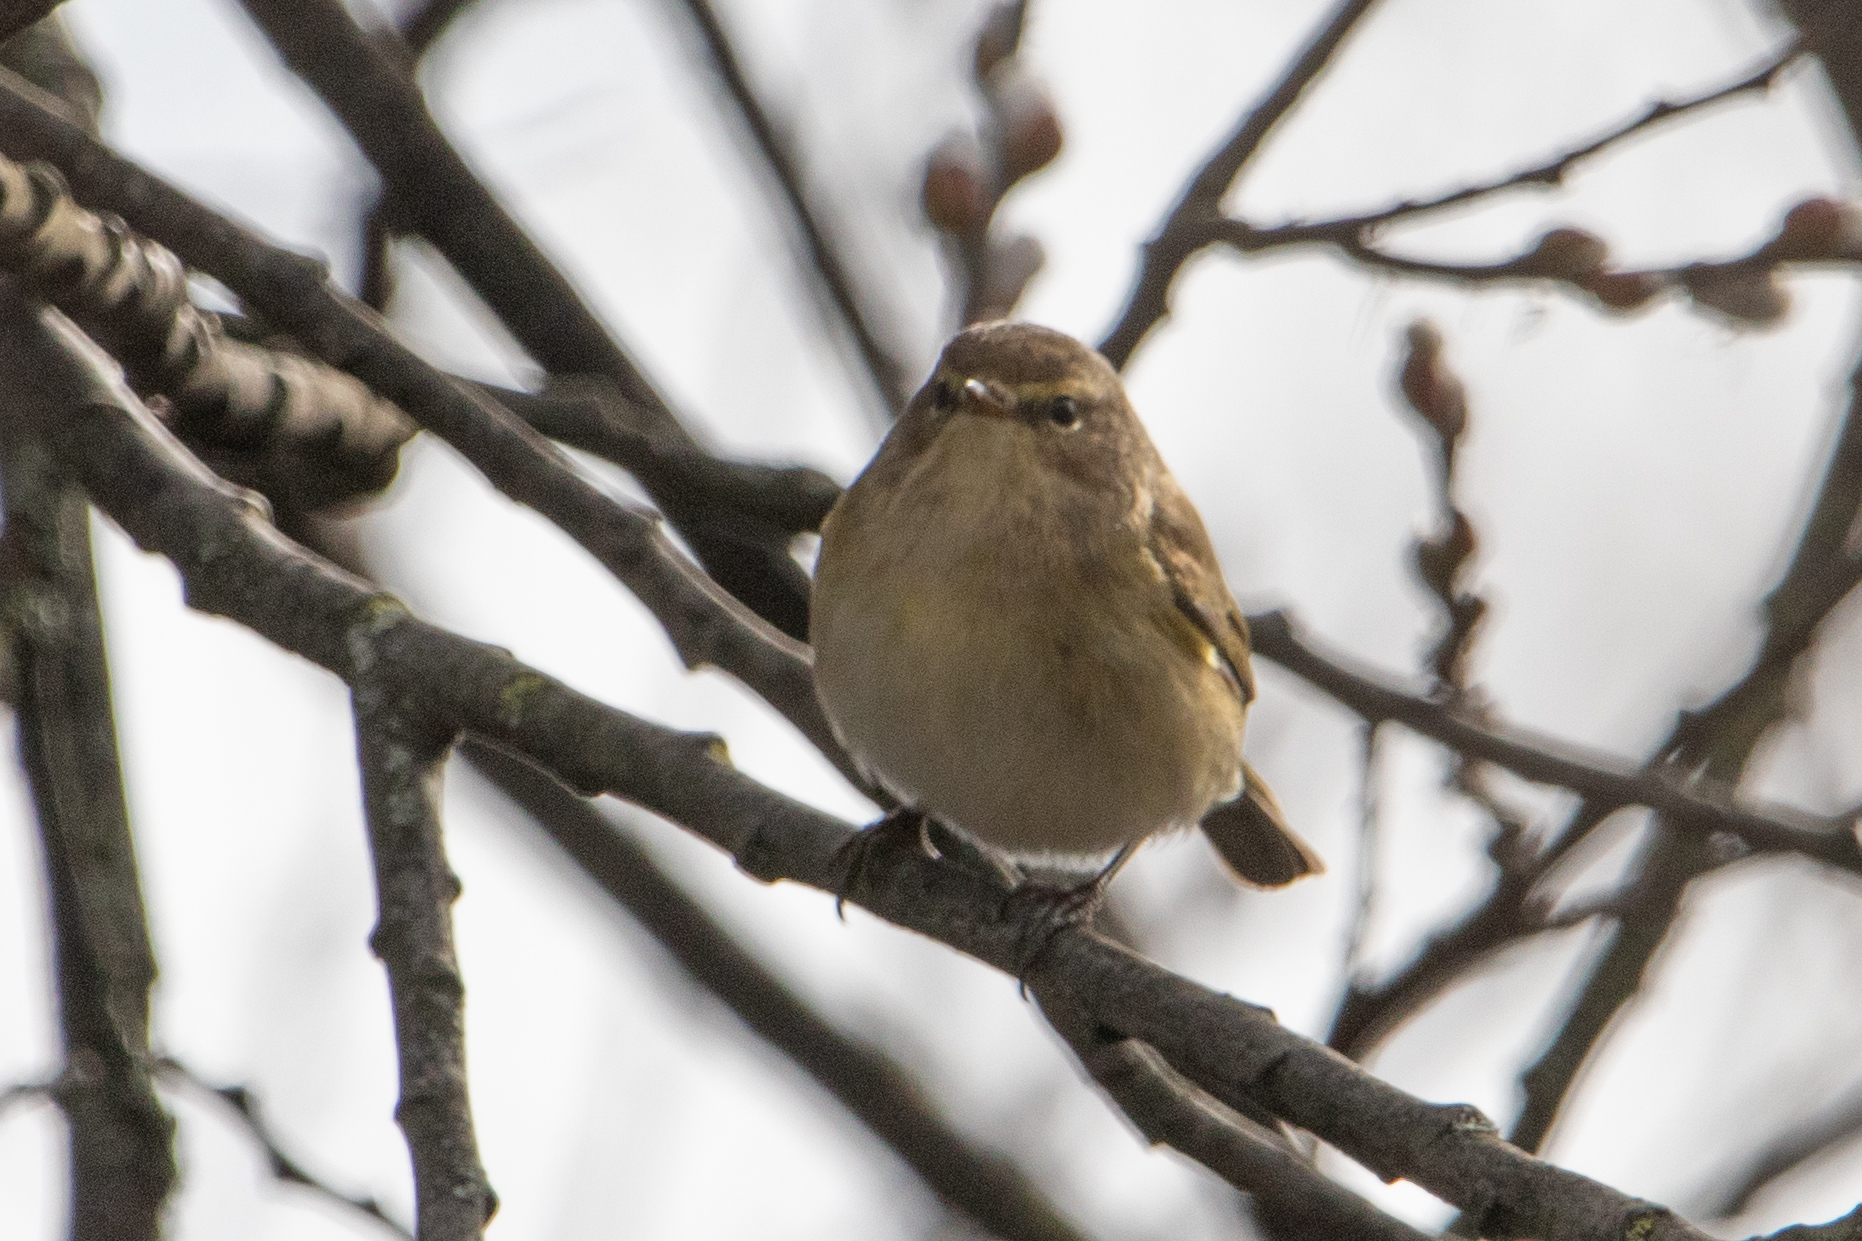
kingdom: Animalia
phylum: Chordata
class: Aves
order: Passeriformes
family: Phylloscopidae
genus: Phylloscopus
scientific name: Phylloscopus collybita
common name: Common chiffchaff
